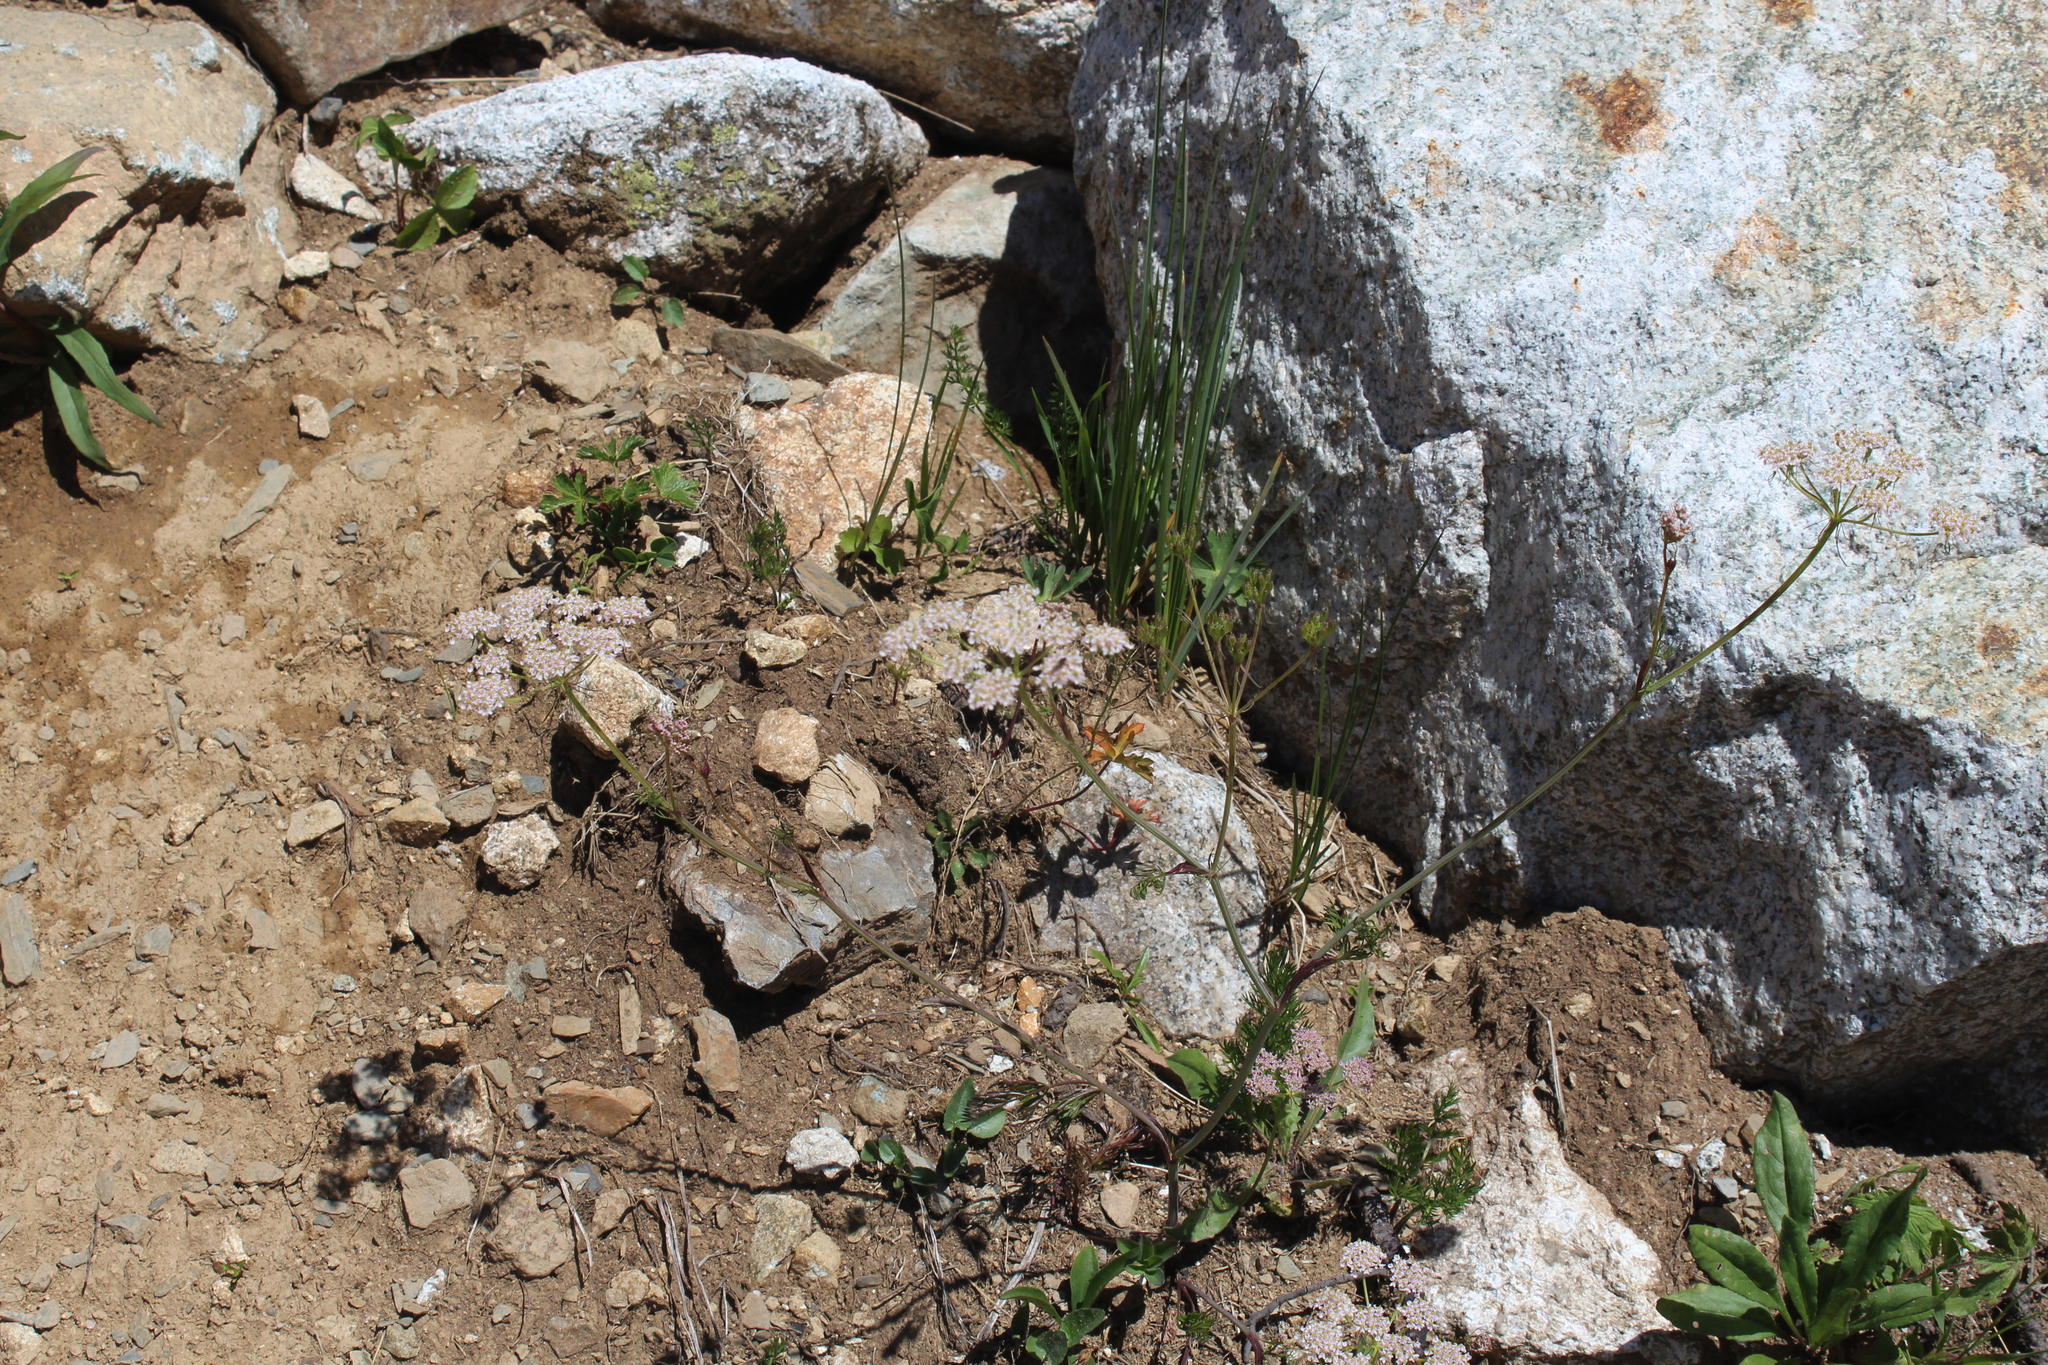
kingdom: Plantae
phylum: Tracheophyta
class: Magnoliopsida
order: Apiales
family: Apiaceae
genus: Carum
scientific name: Carum meifolium
